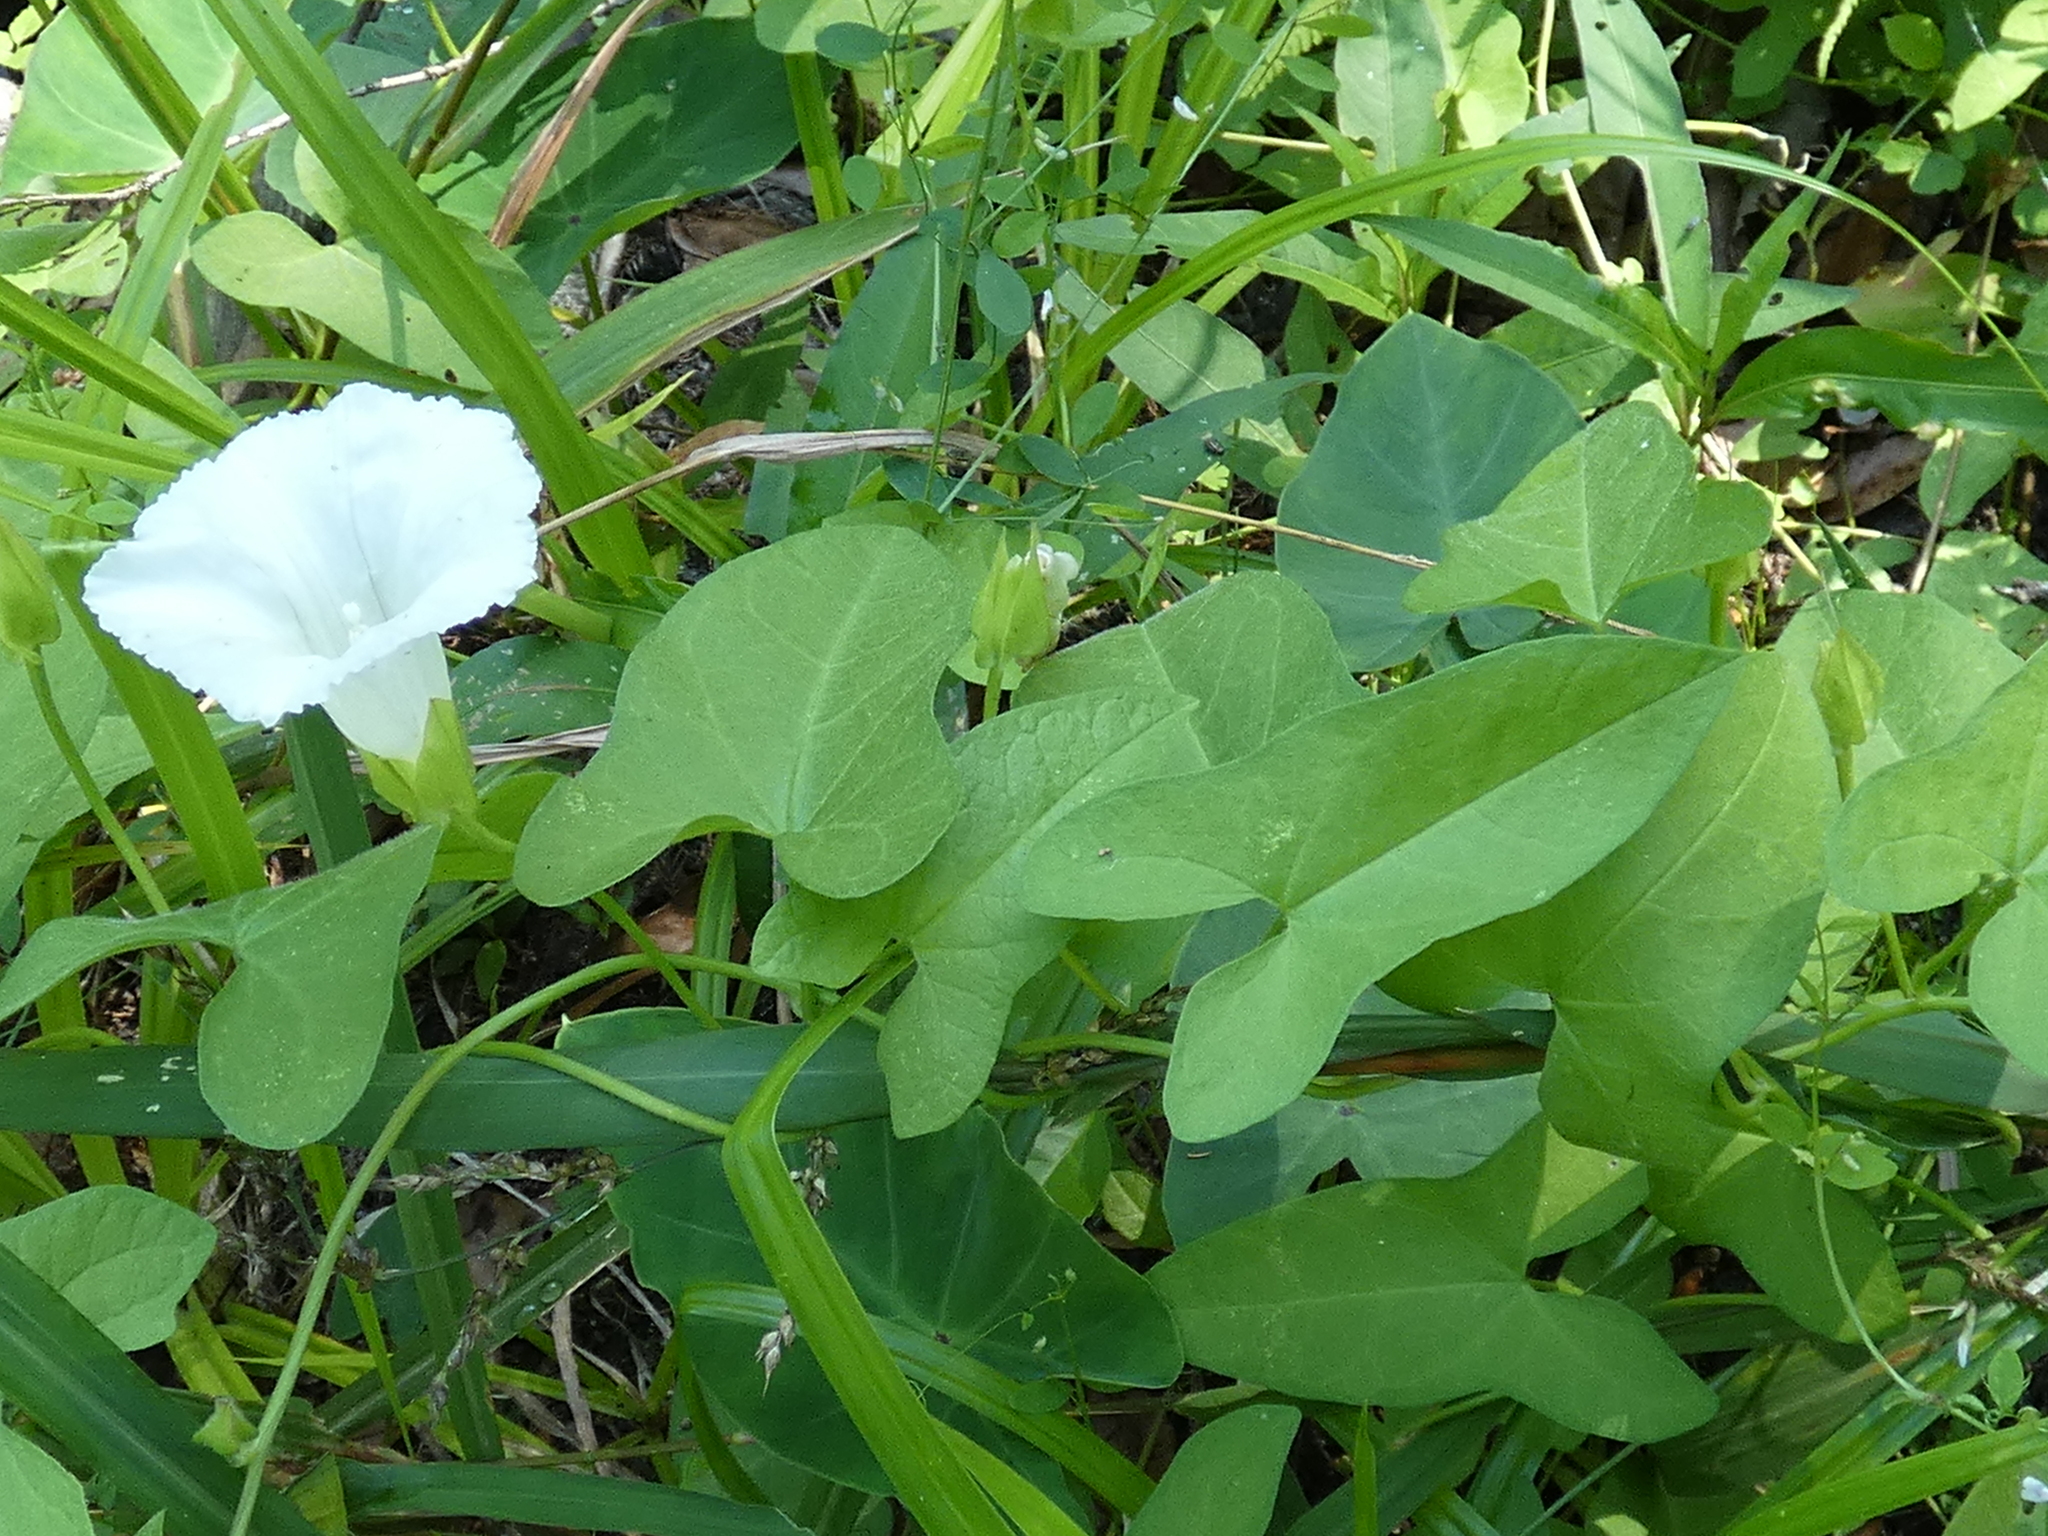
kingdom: Plantae
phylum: Tracheophyta
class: Magnoliopsida
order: Solanales
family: Convolvulaceae
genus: Calystegia
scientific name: Calystegia sepium
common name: Hedge bindweed
